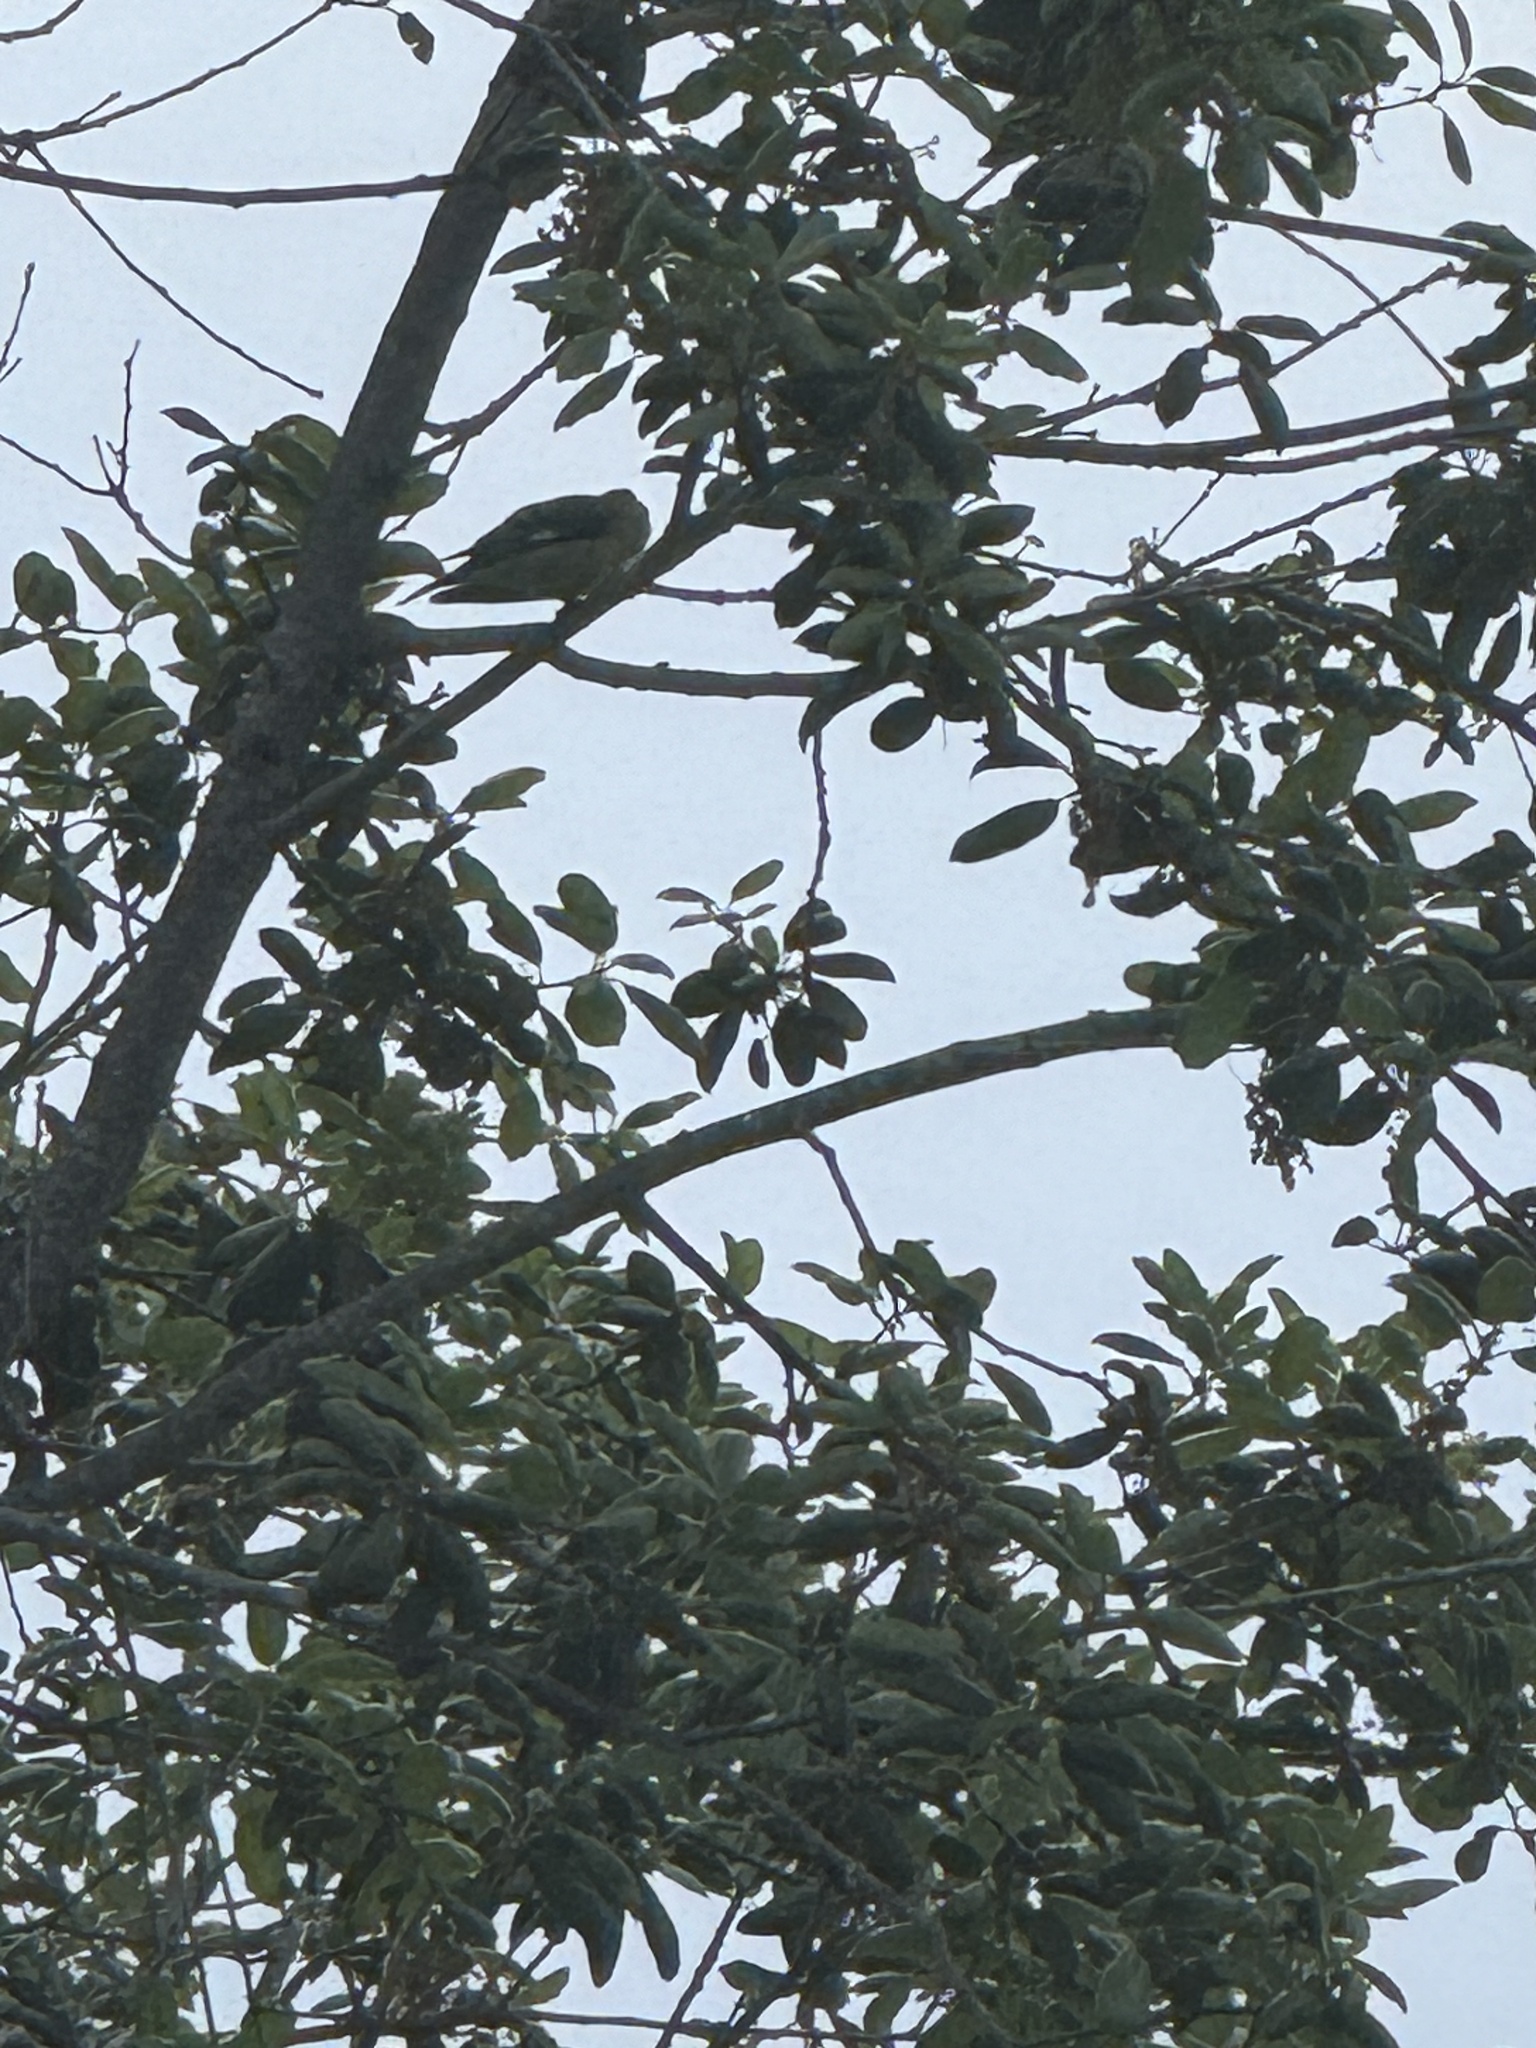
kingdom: Animalia
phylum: Chordata
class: Aves
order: Passeriformes
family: Fringillidae
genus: Spinus
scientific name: Spinus psaltria
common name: Lesser goldfinch
